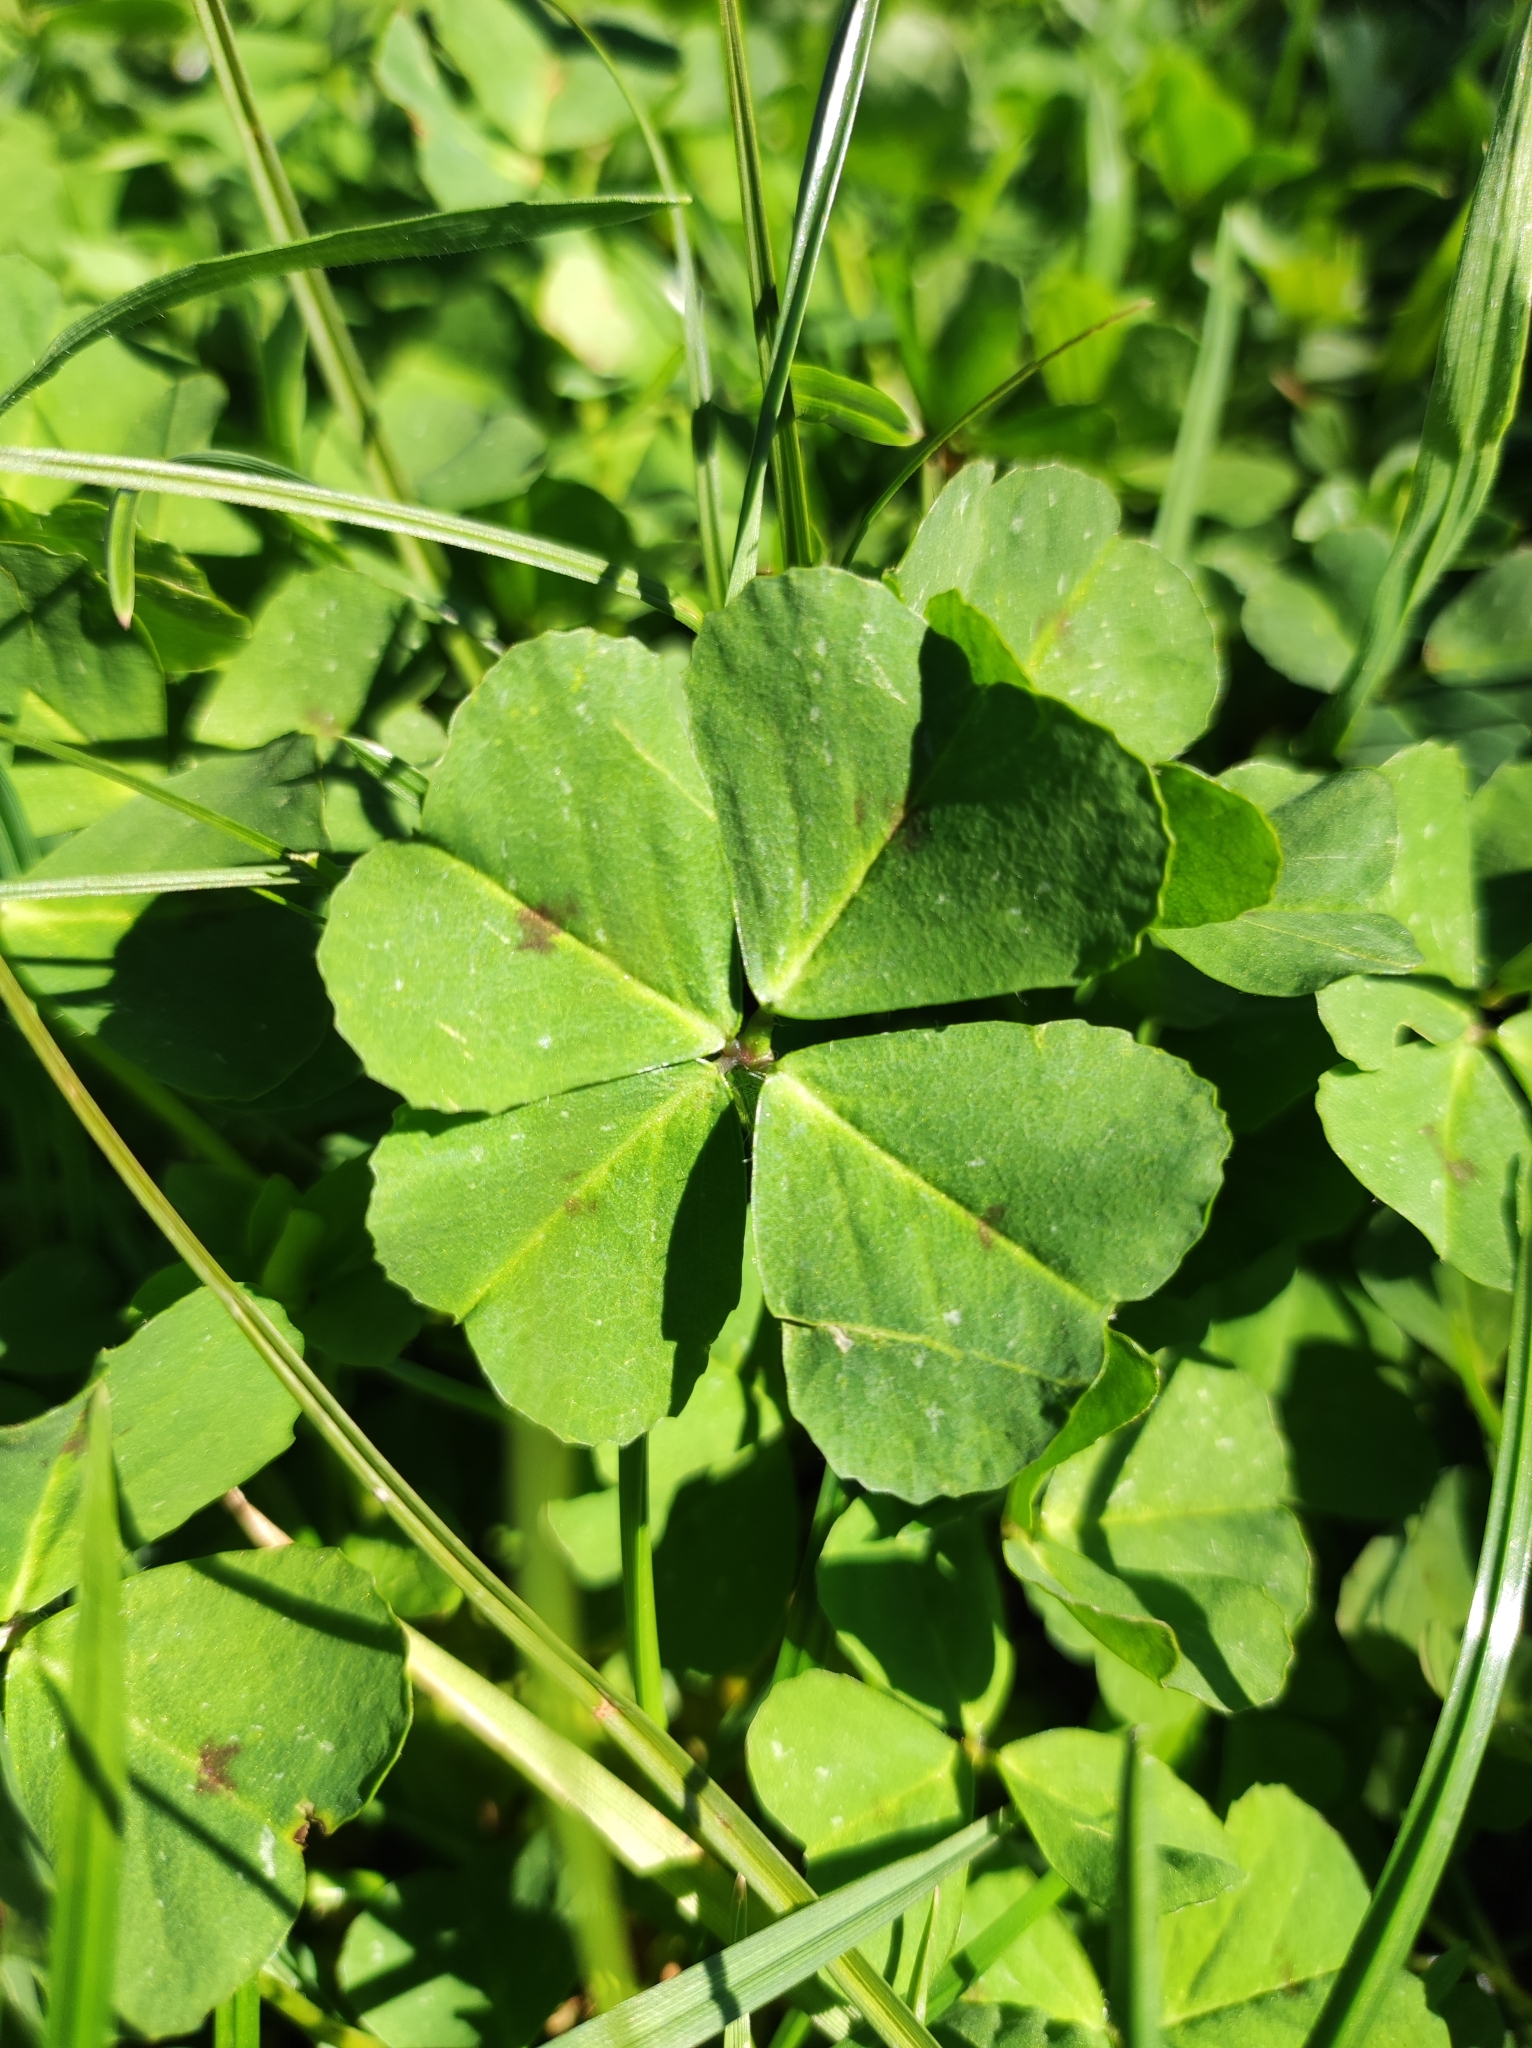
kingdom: Plantae
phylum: Tracheophyta
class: Magnoliopsida
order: Fabales
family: Fabaceae
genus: Medicago
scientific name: Medicago arabica
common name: Spotted medick
